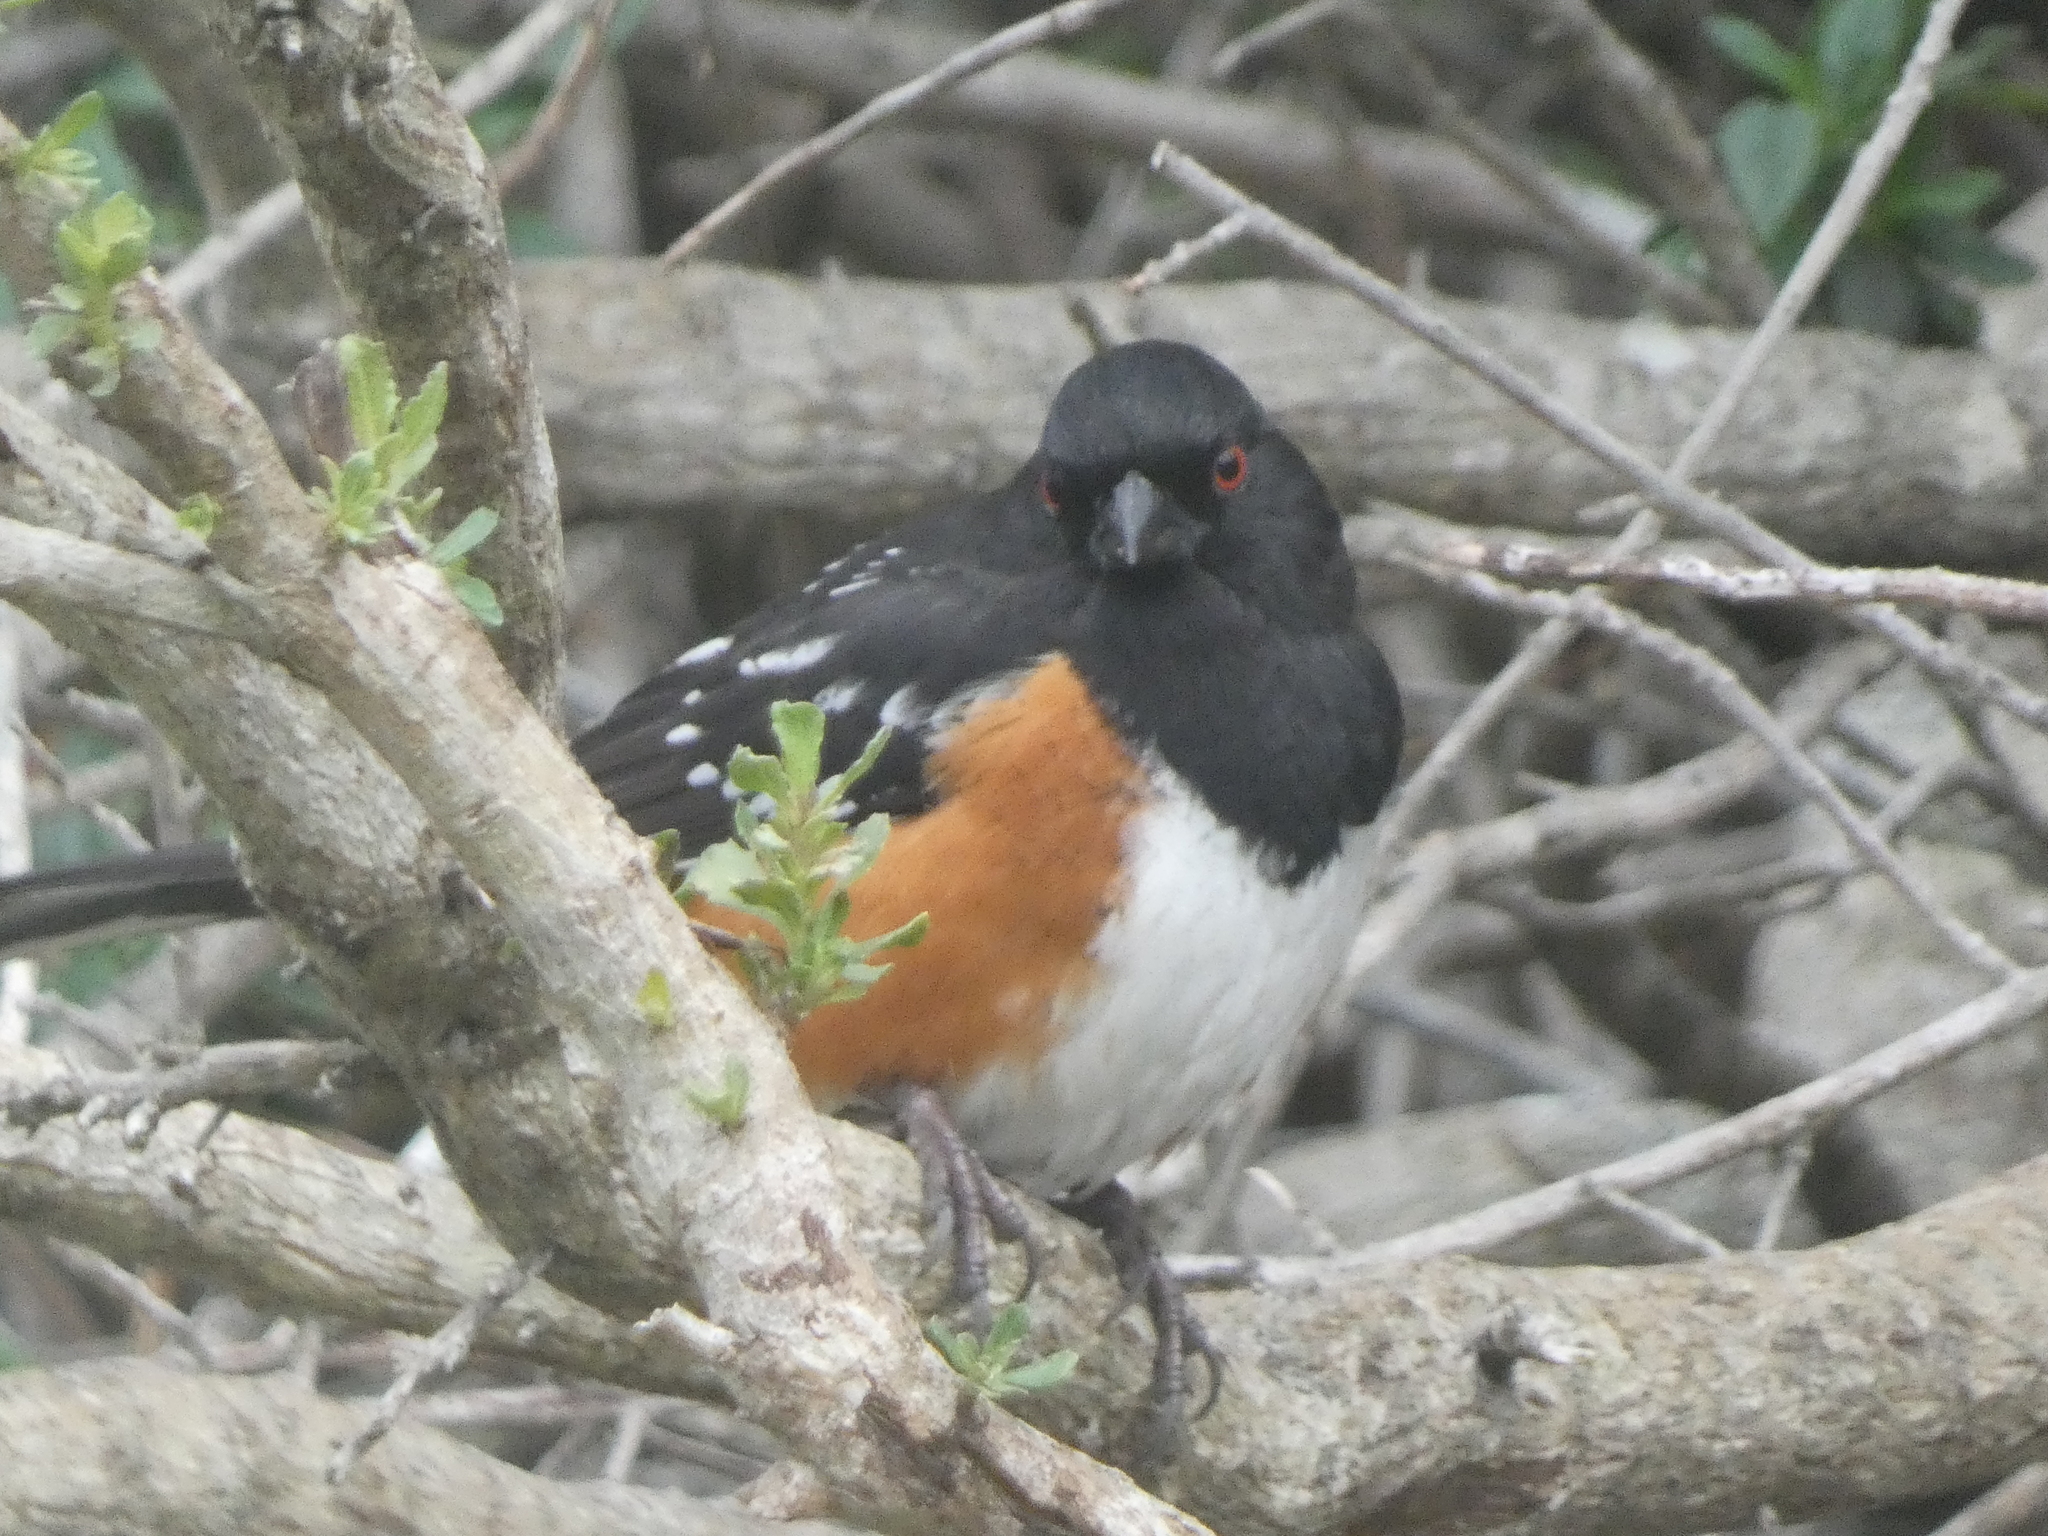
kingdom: Animalia
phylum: Chordata
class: Aves
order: Passeriformes
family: Passerellidae
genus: Pipilo
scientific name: Pipilo maculatus
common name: Spotted towhee
